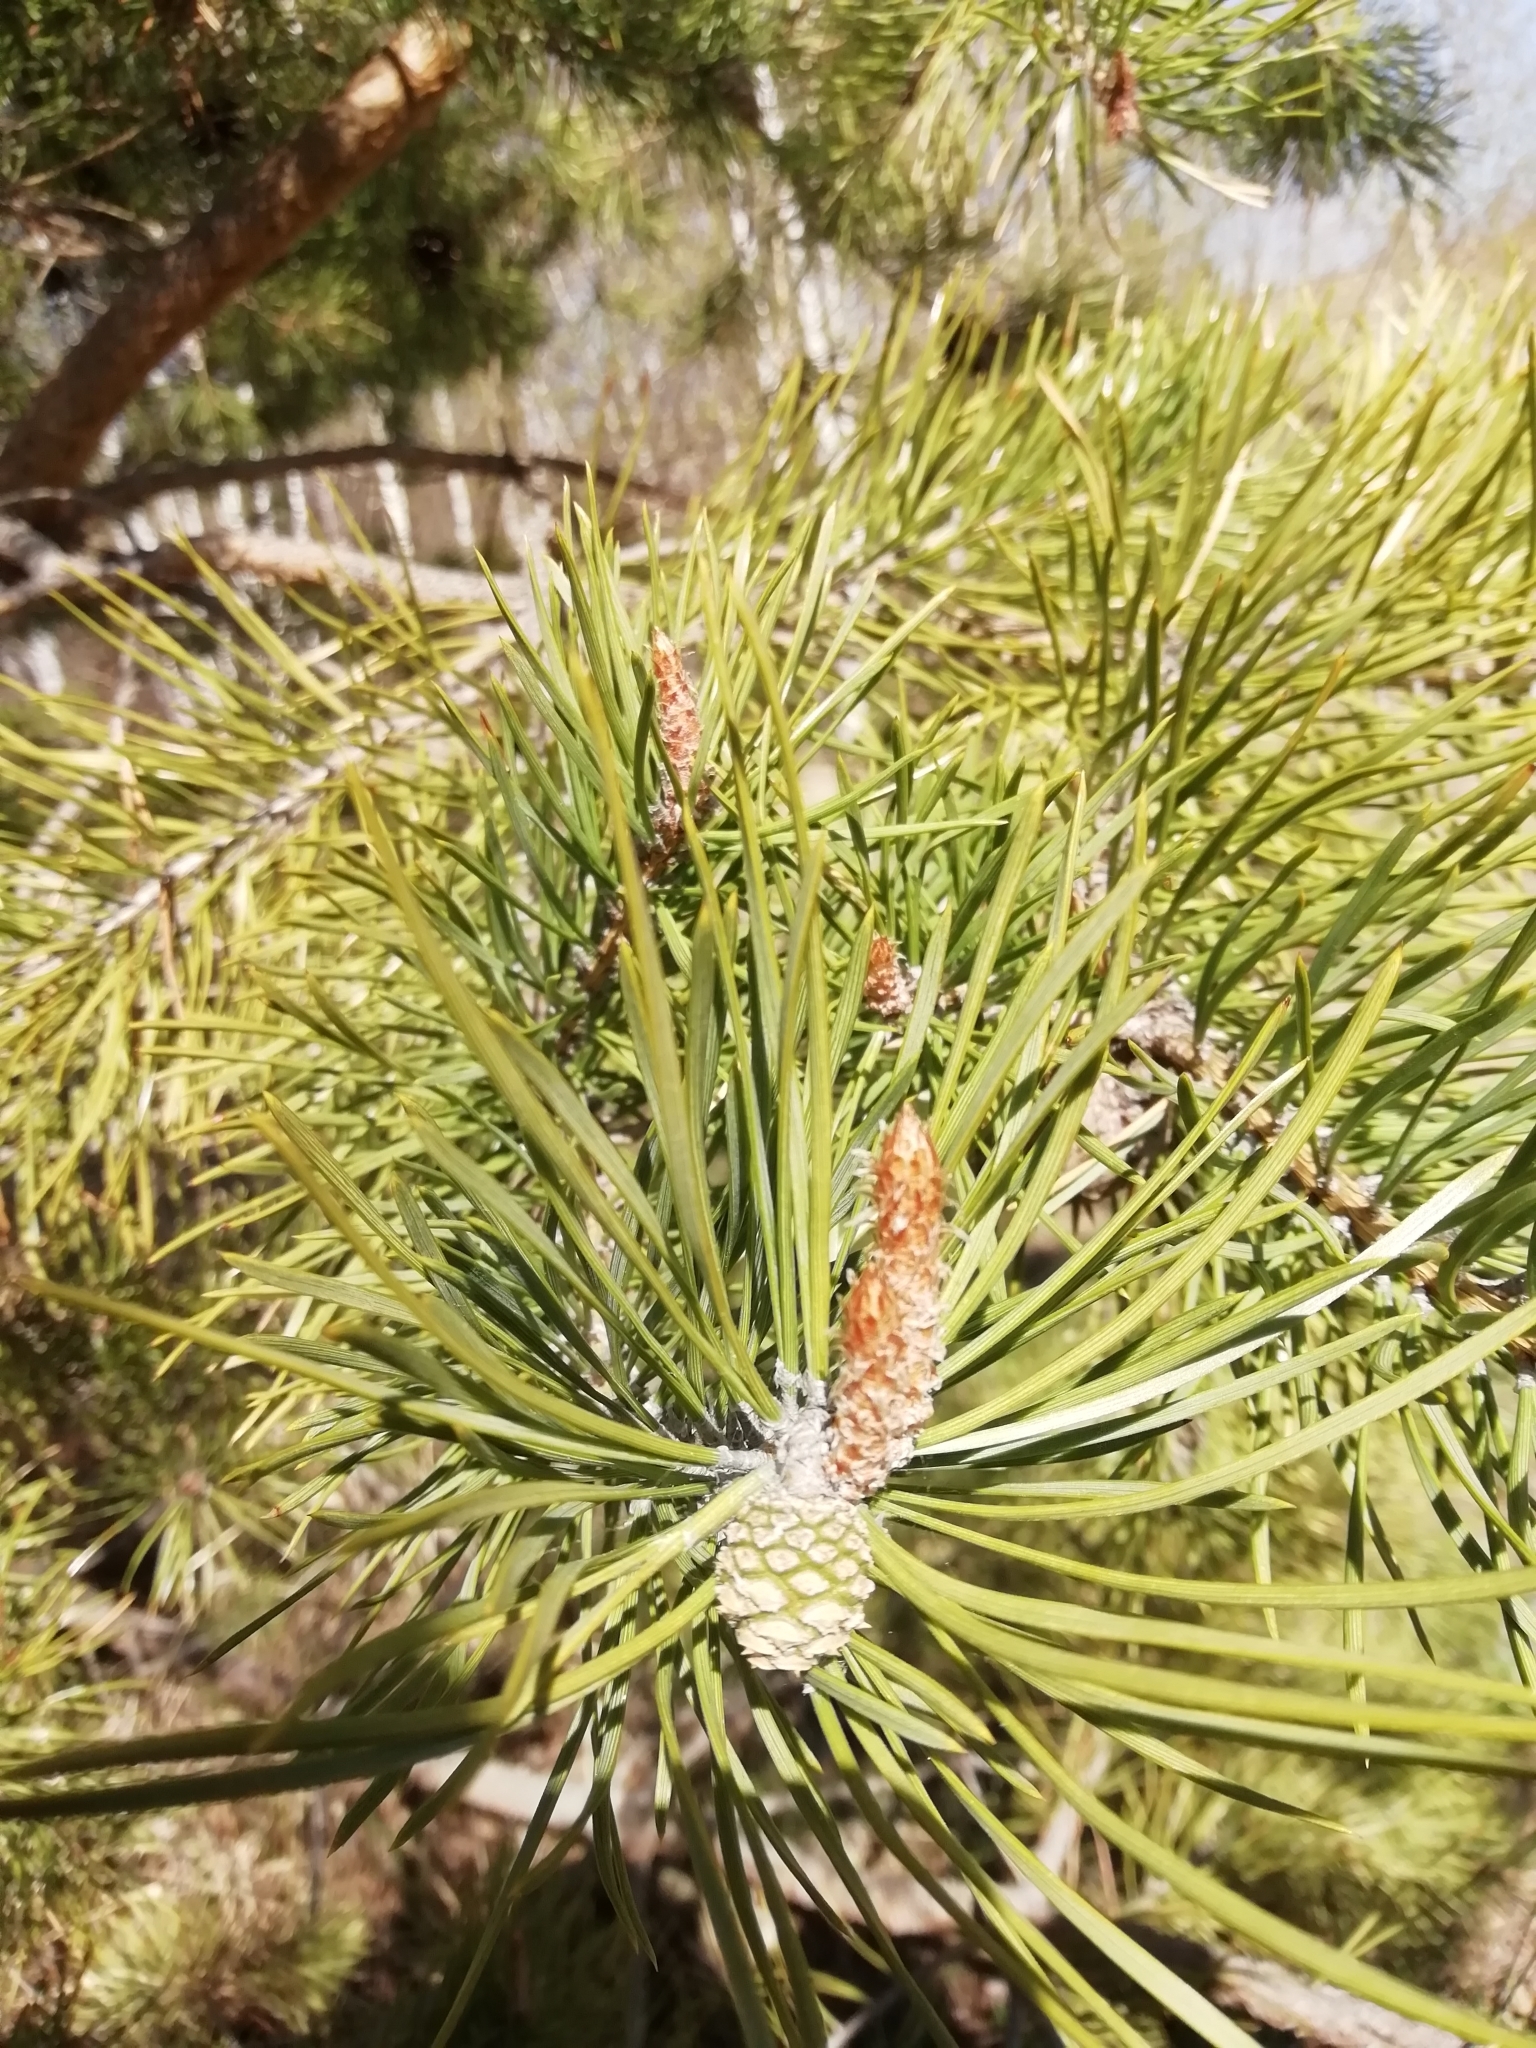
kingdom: Plantae
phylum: Tracheophyta
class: Pinopsida
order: Pinales
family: Pinaceae
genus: Pinus
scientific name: Pinus sylvestris
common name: Scots pine
